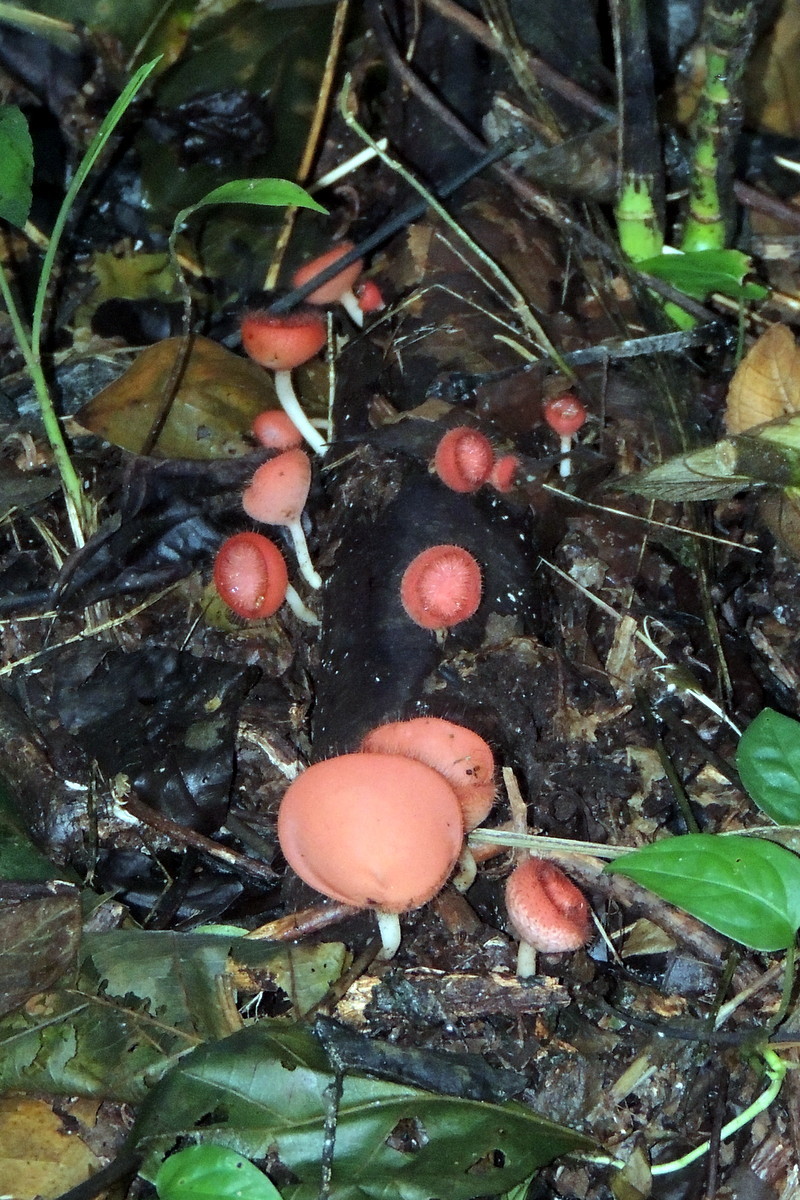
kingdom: Fungi
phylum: Ascomycota
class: Pezizomycetes
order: Pezizales
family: Sarcoscyphaceae
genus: Cookeina
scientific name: Cookeina speciosa
